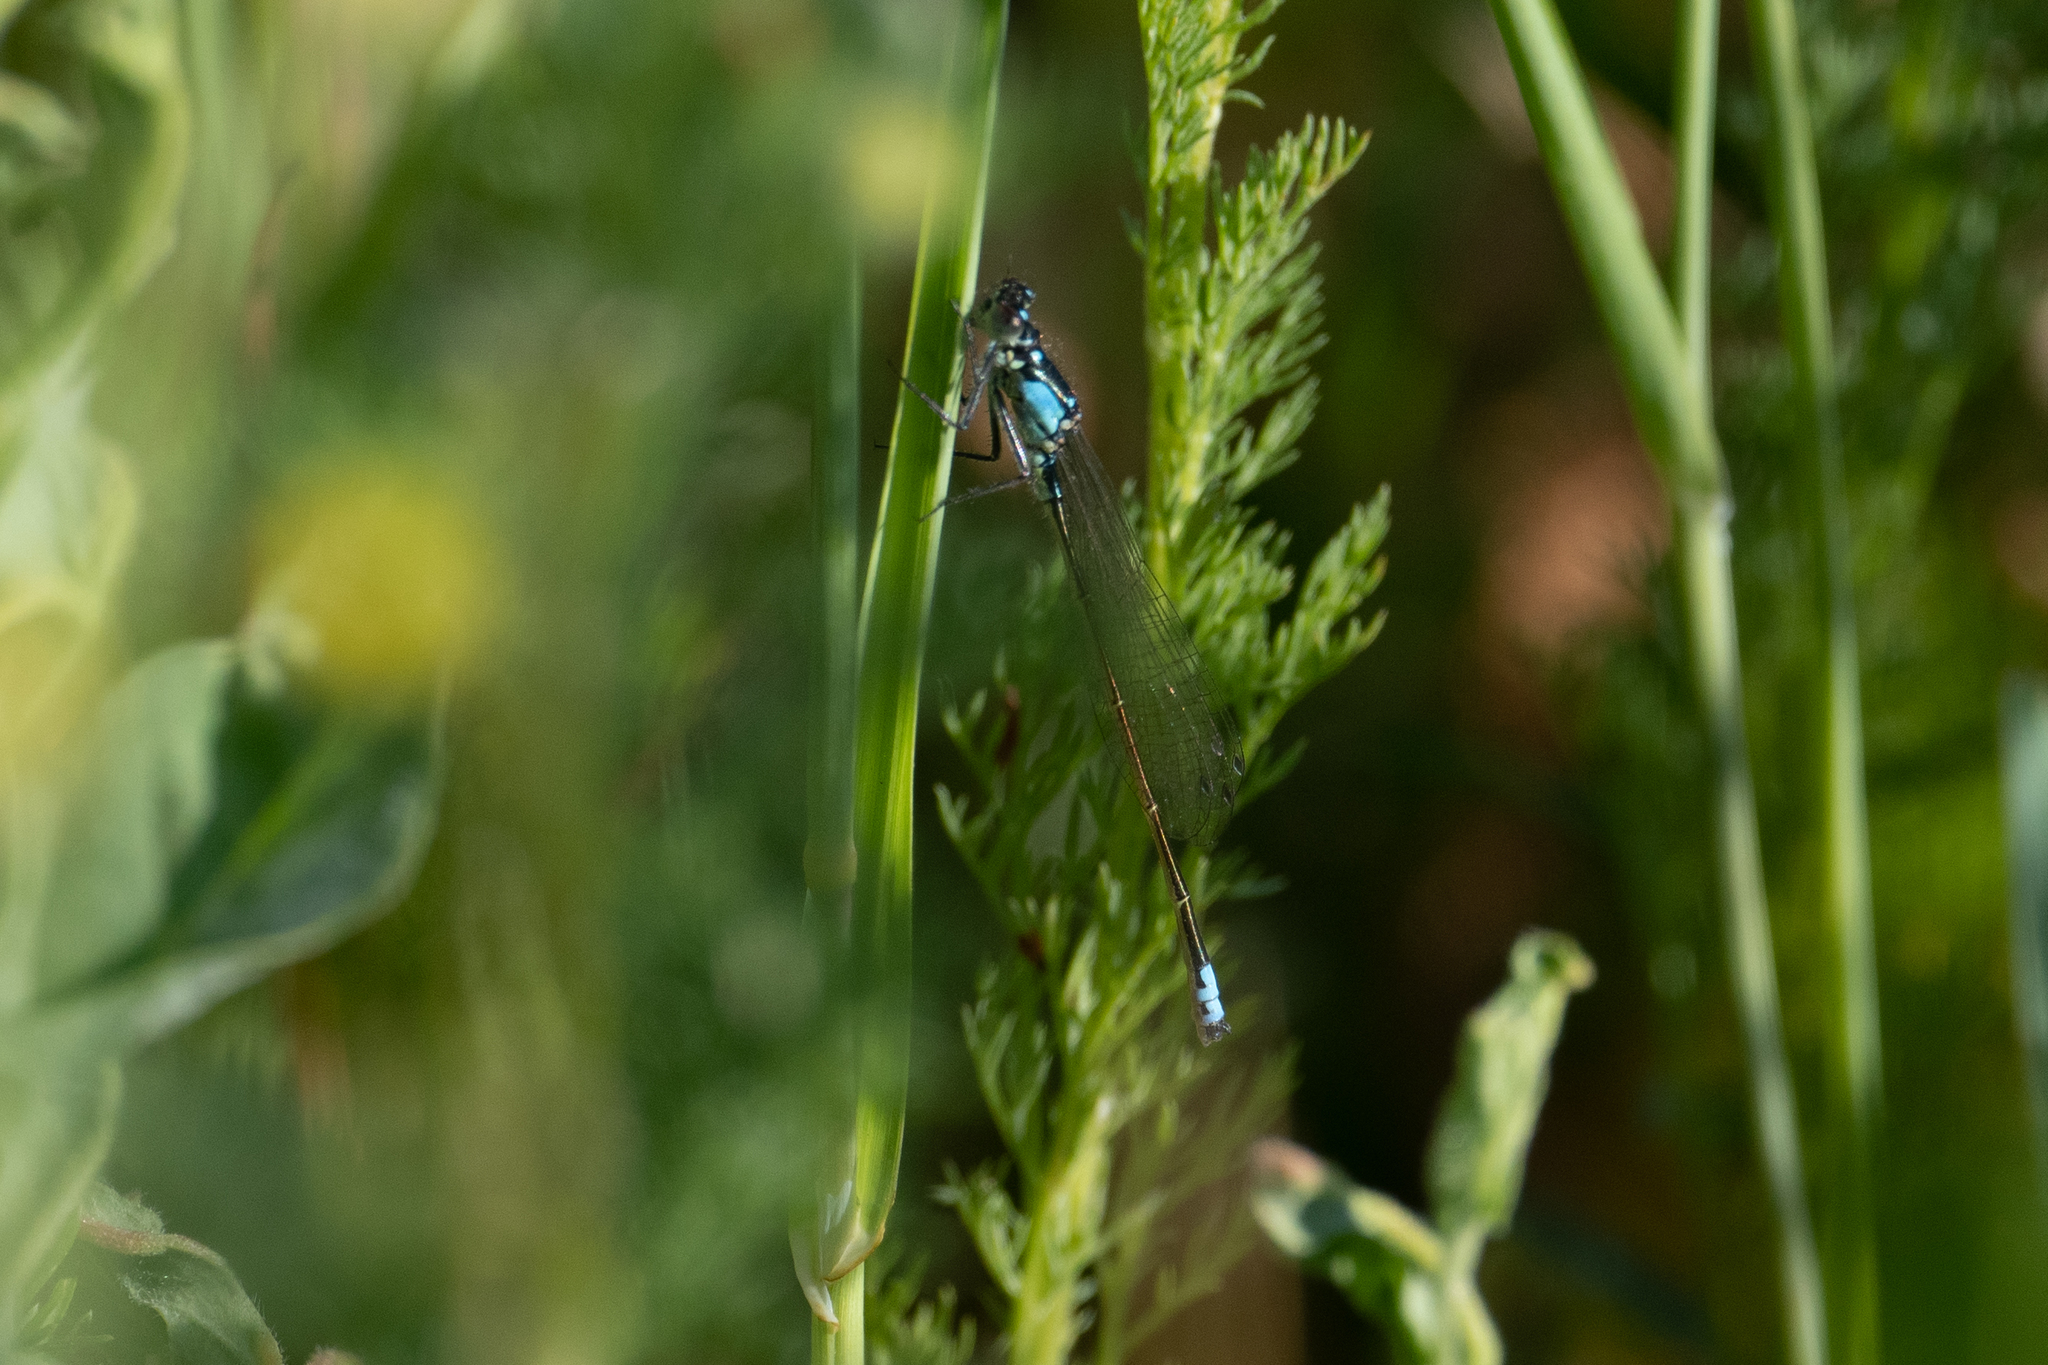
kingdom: Animalia
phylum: Arthropoda
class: Insecta
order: Odonata
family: Coenagrionidae
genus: Ischnura
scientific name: Ischnura cervula
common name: Pacific forktail
